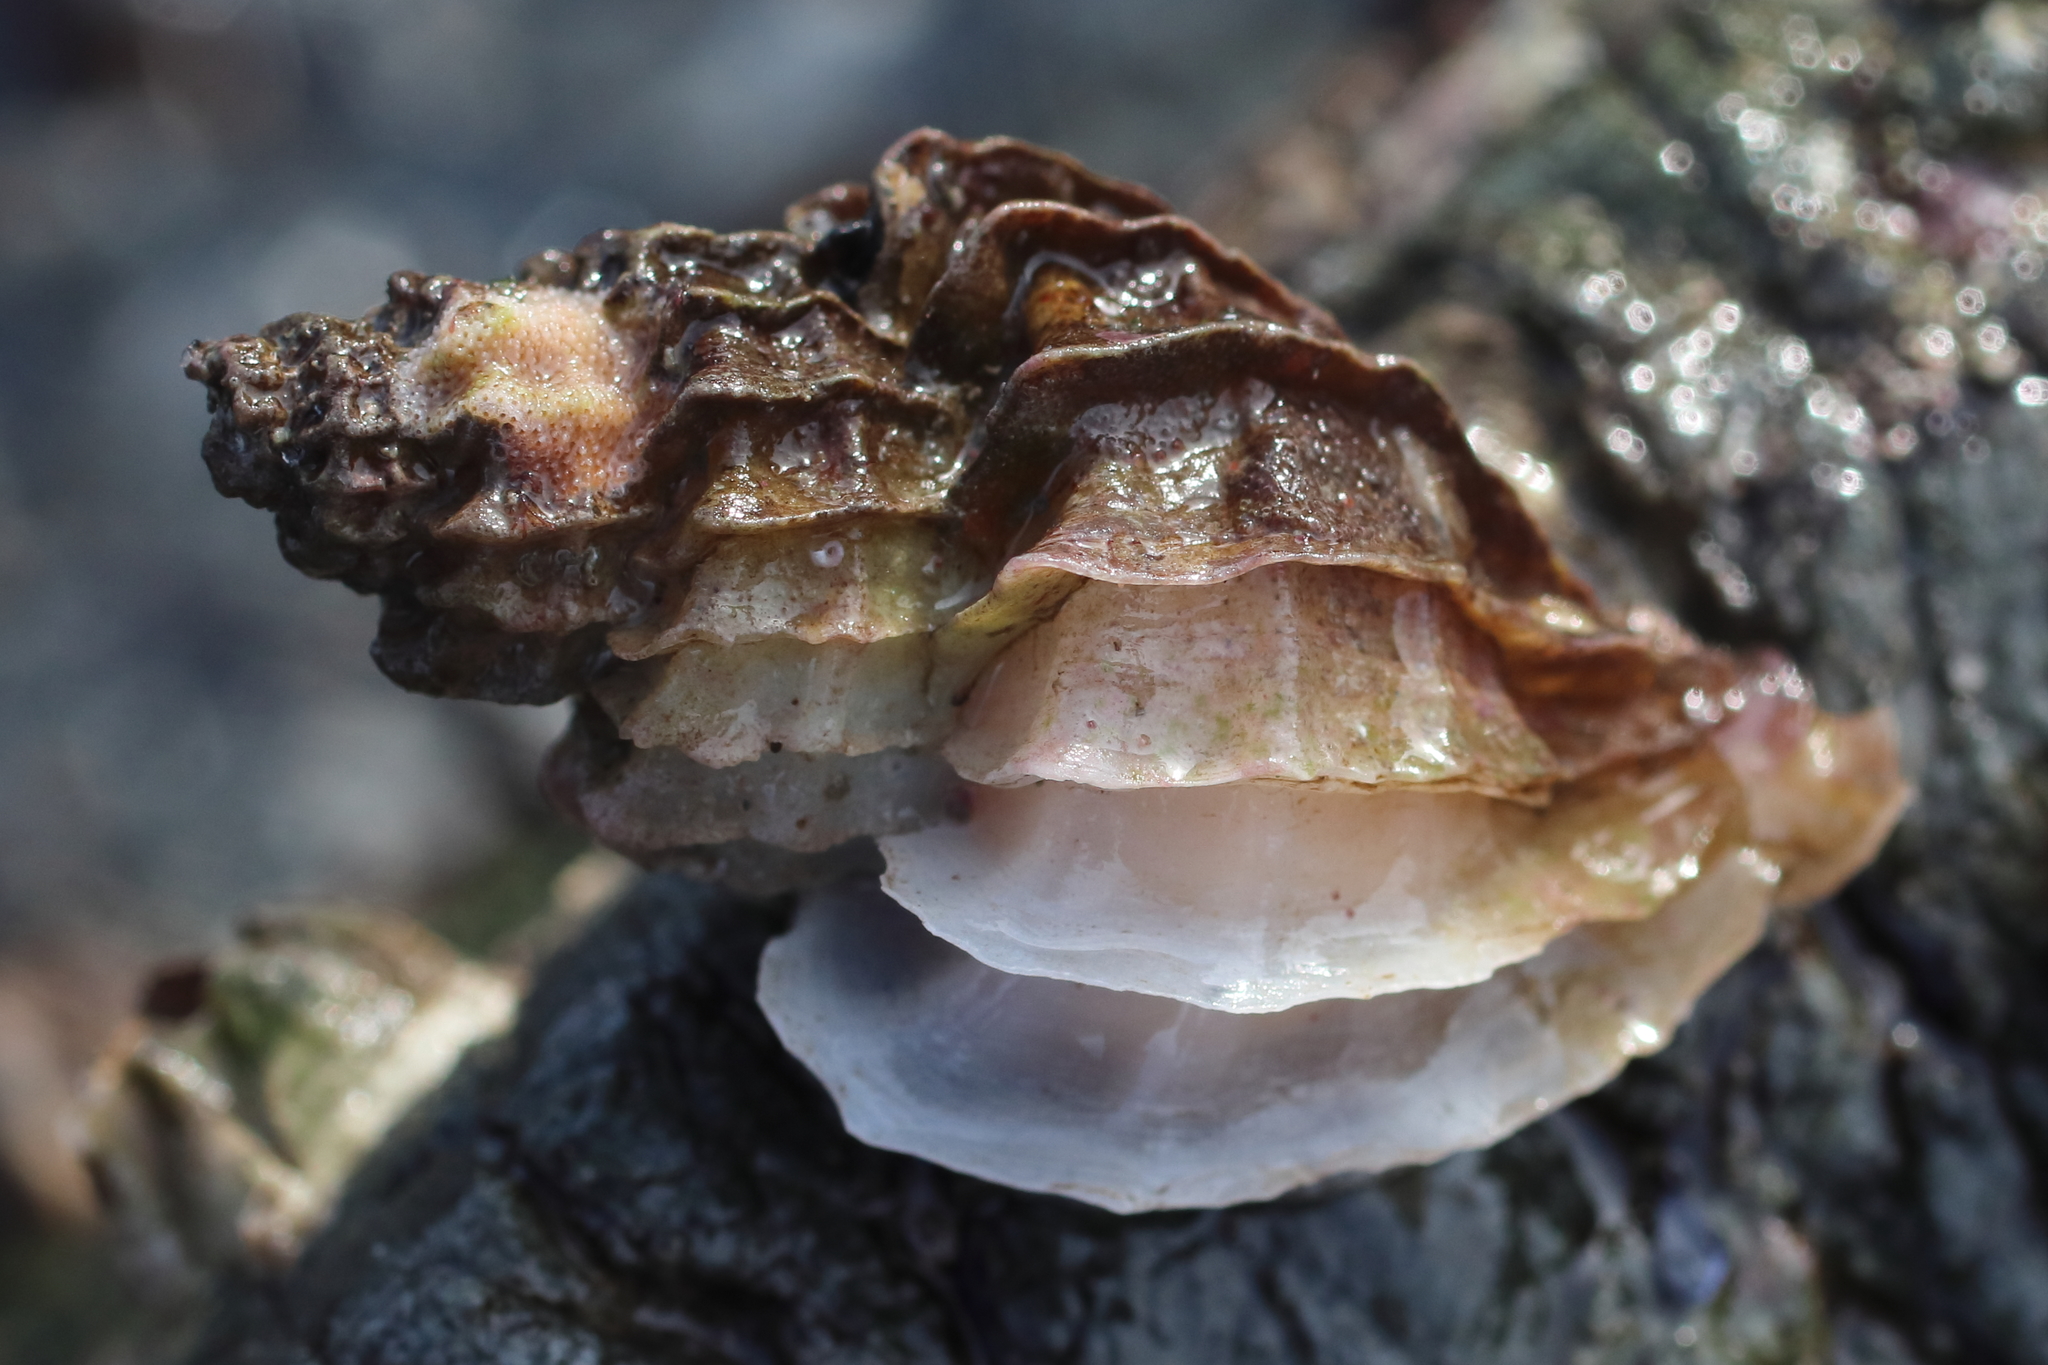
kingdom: Animalia
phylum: Mollusca
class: Gastropoda
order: Neogastropoda
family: Muricidae
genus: Scabrotrophon
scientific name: Scabrotrophon stuarti
